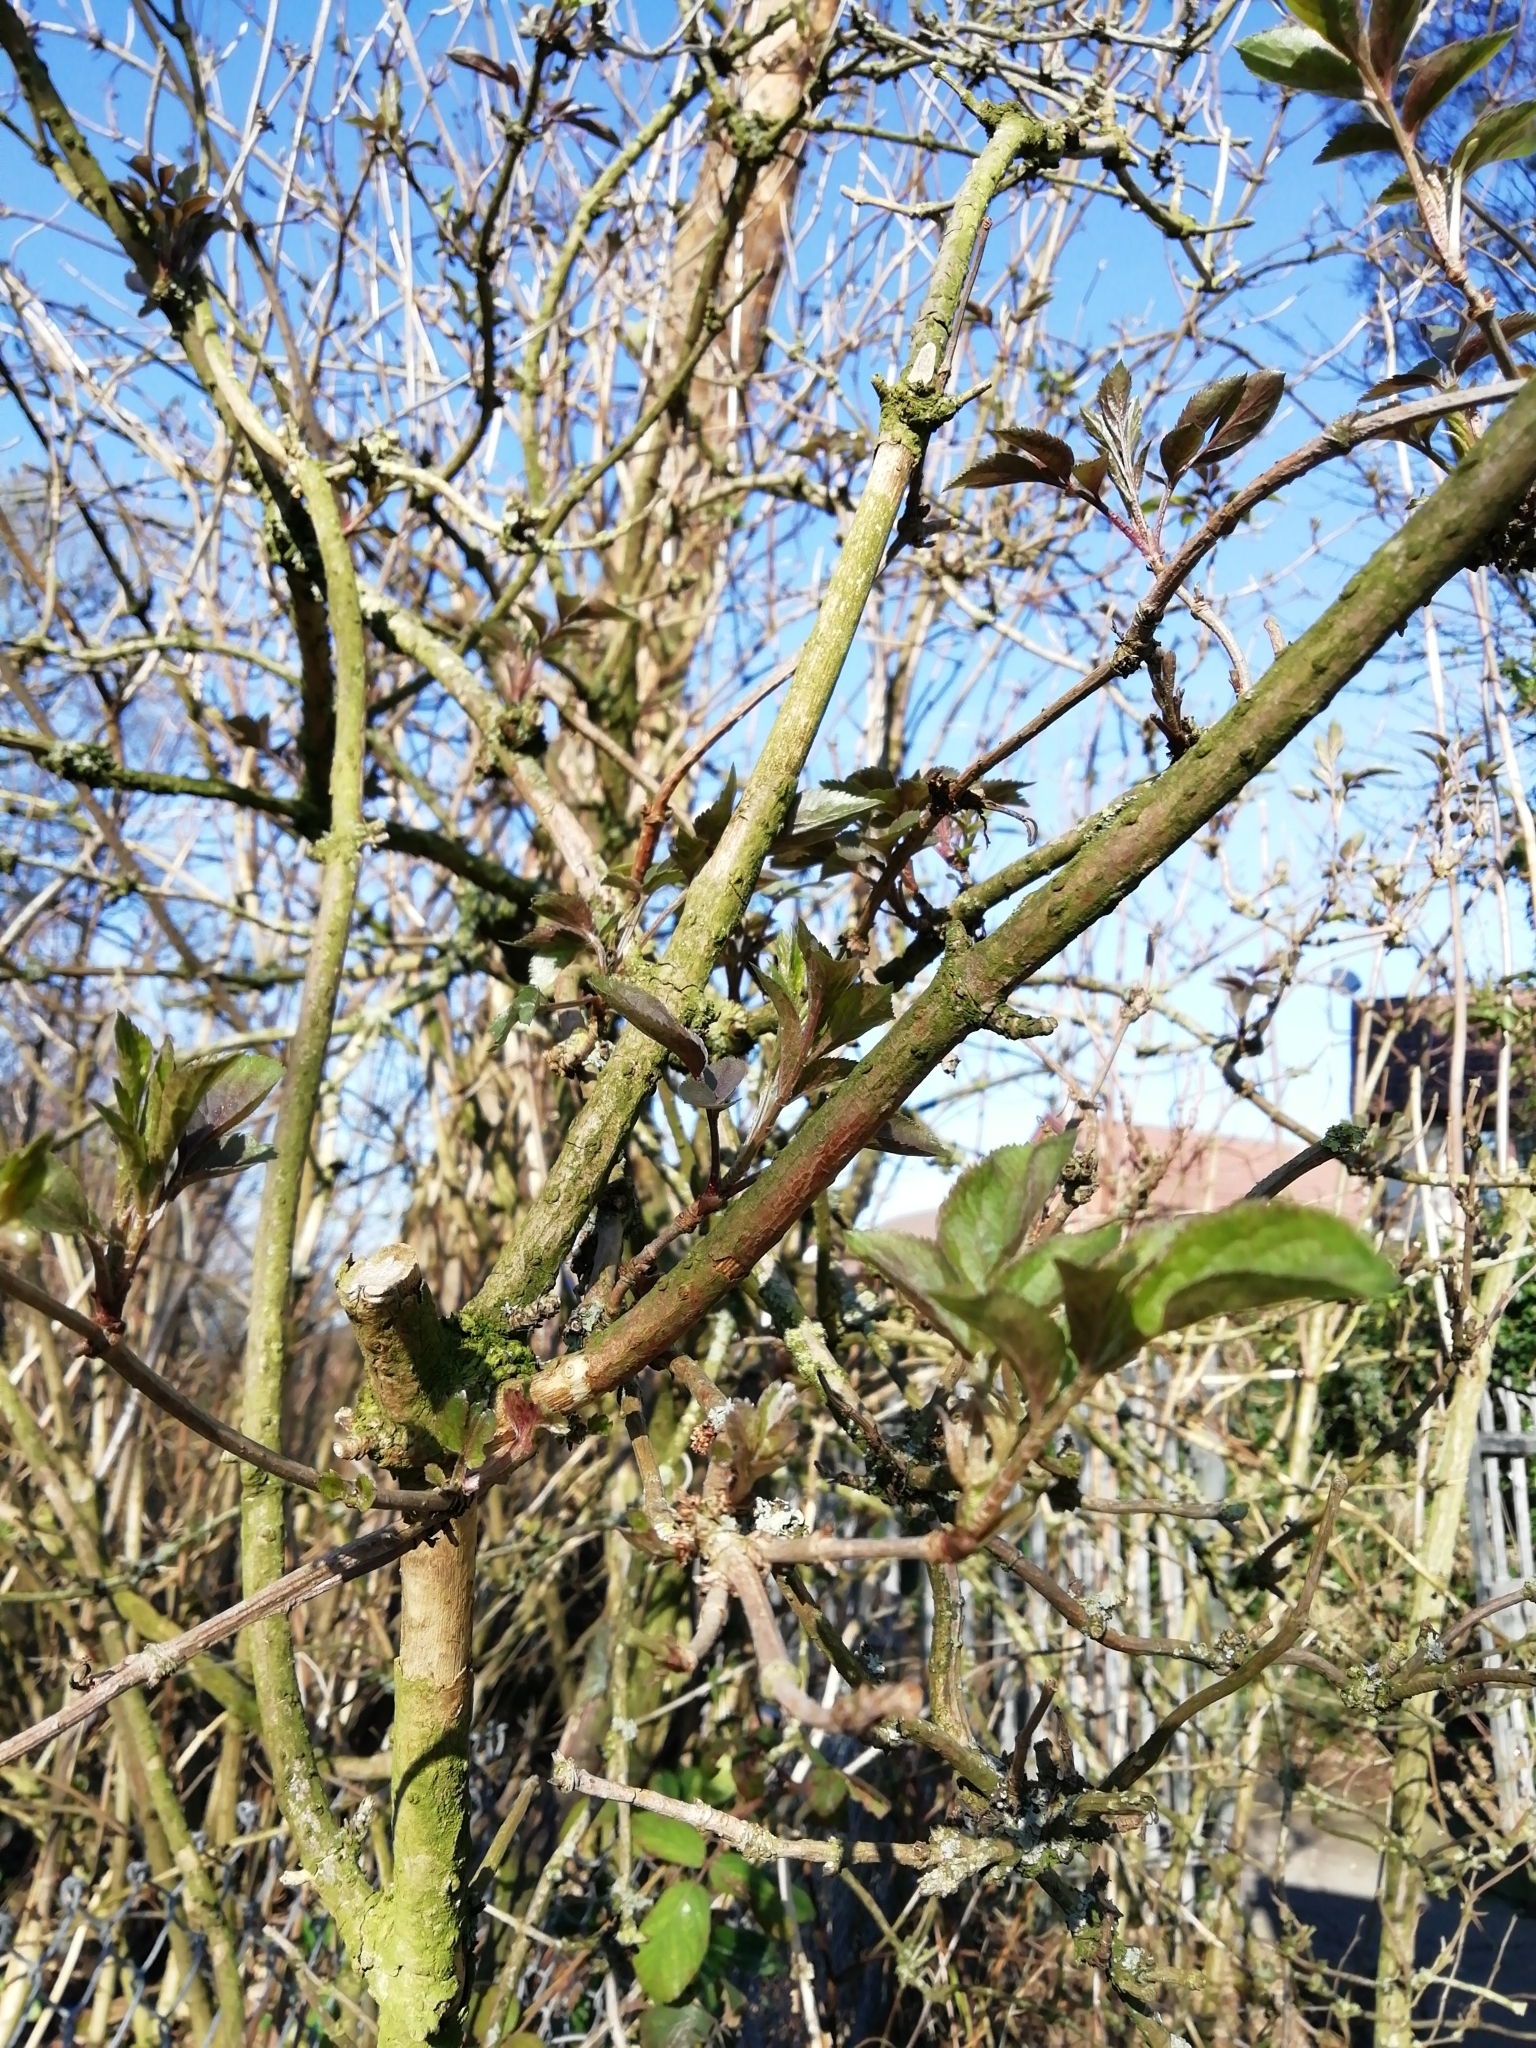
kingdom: Plantae
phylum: Tracheophyta
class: Magnoliopsida
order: Dipsacales
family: Viburnaceae
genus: Sambucus
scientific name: Sambucus nigra
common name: Elder
